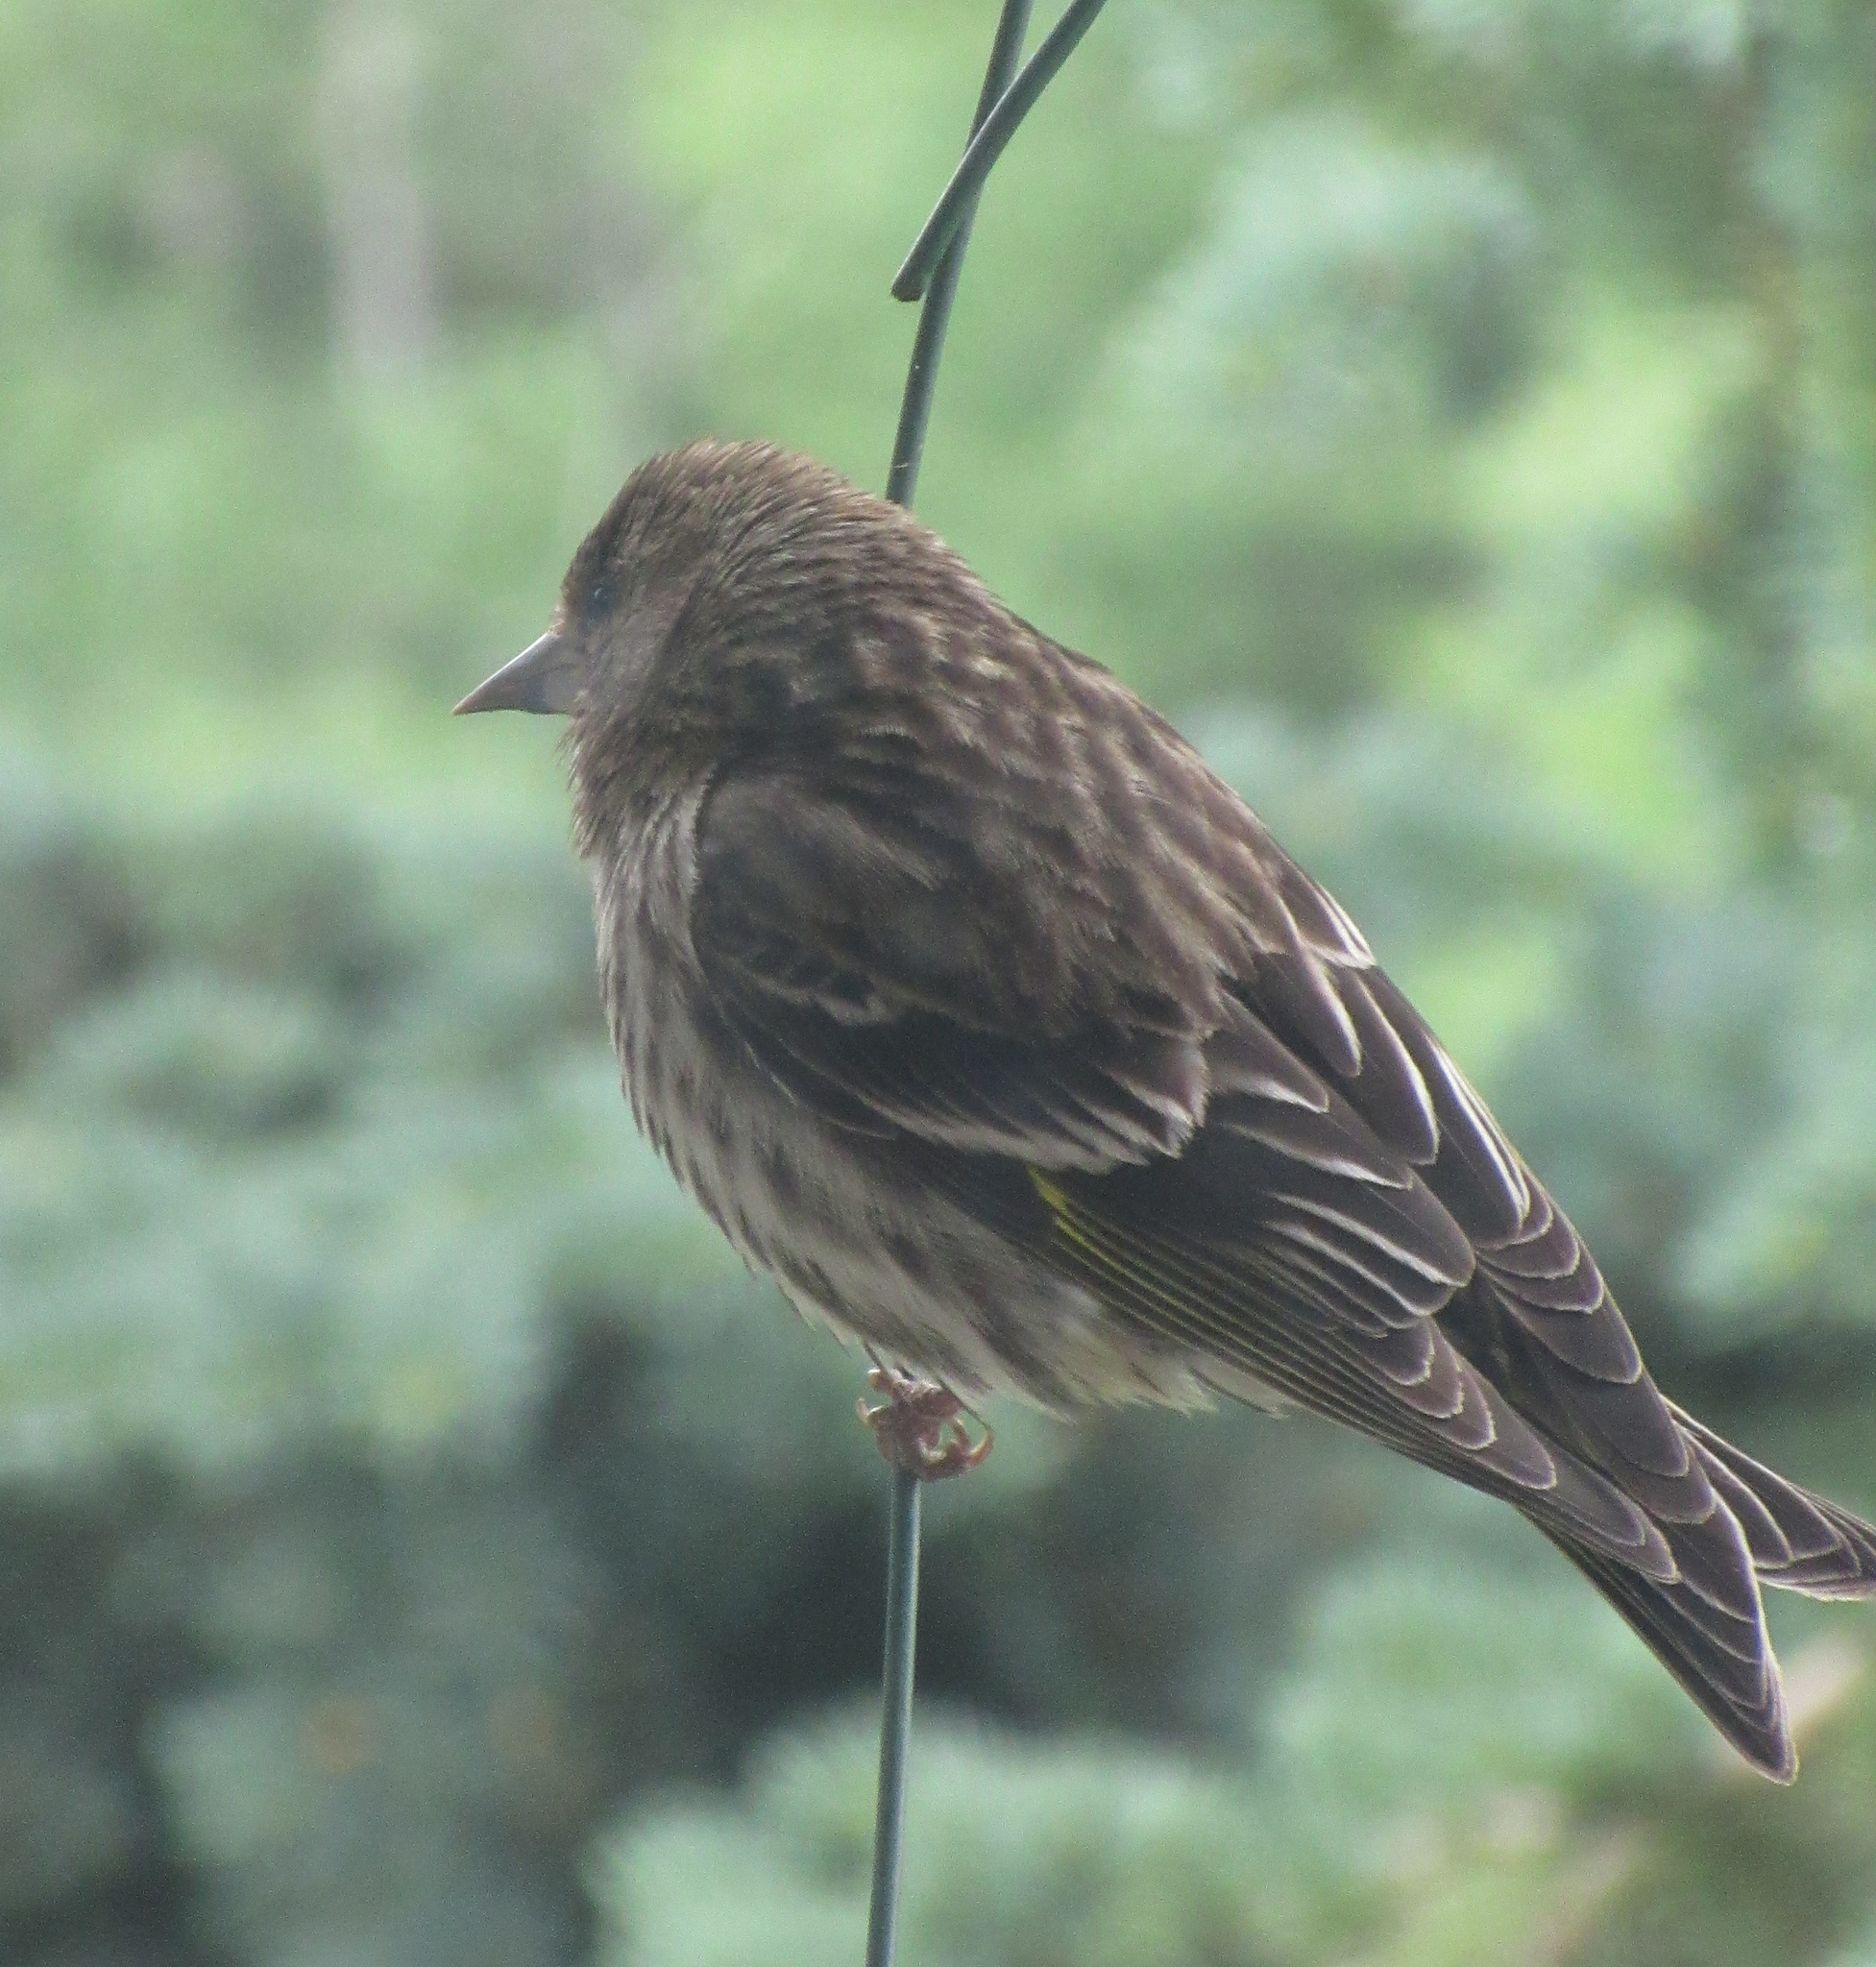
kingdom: Animalia
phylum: Chordata
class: Aves
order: Passeriformes
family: Fringillidae
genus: Spinus
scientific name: Spinus pinus
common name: Pine siskin
